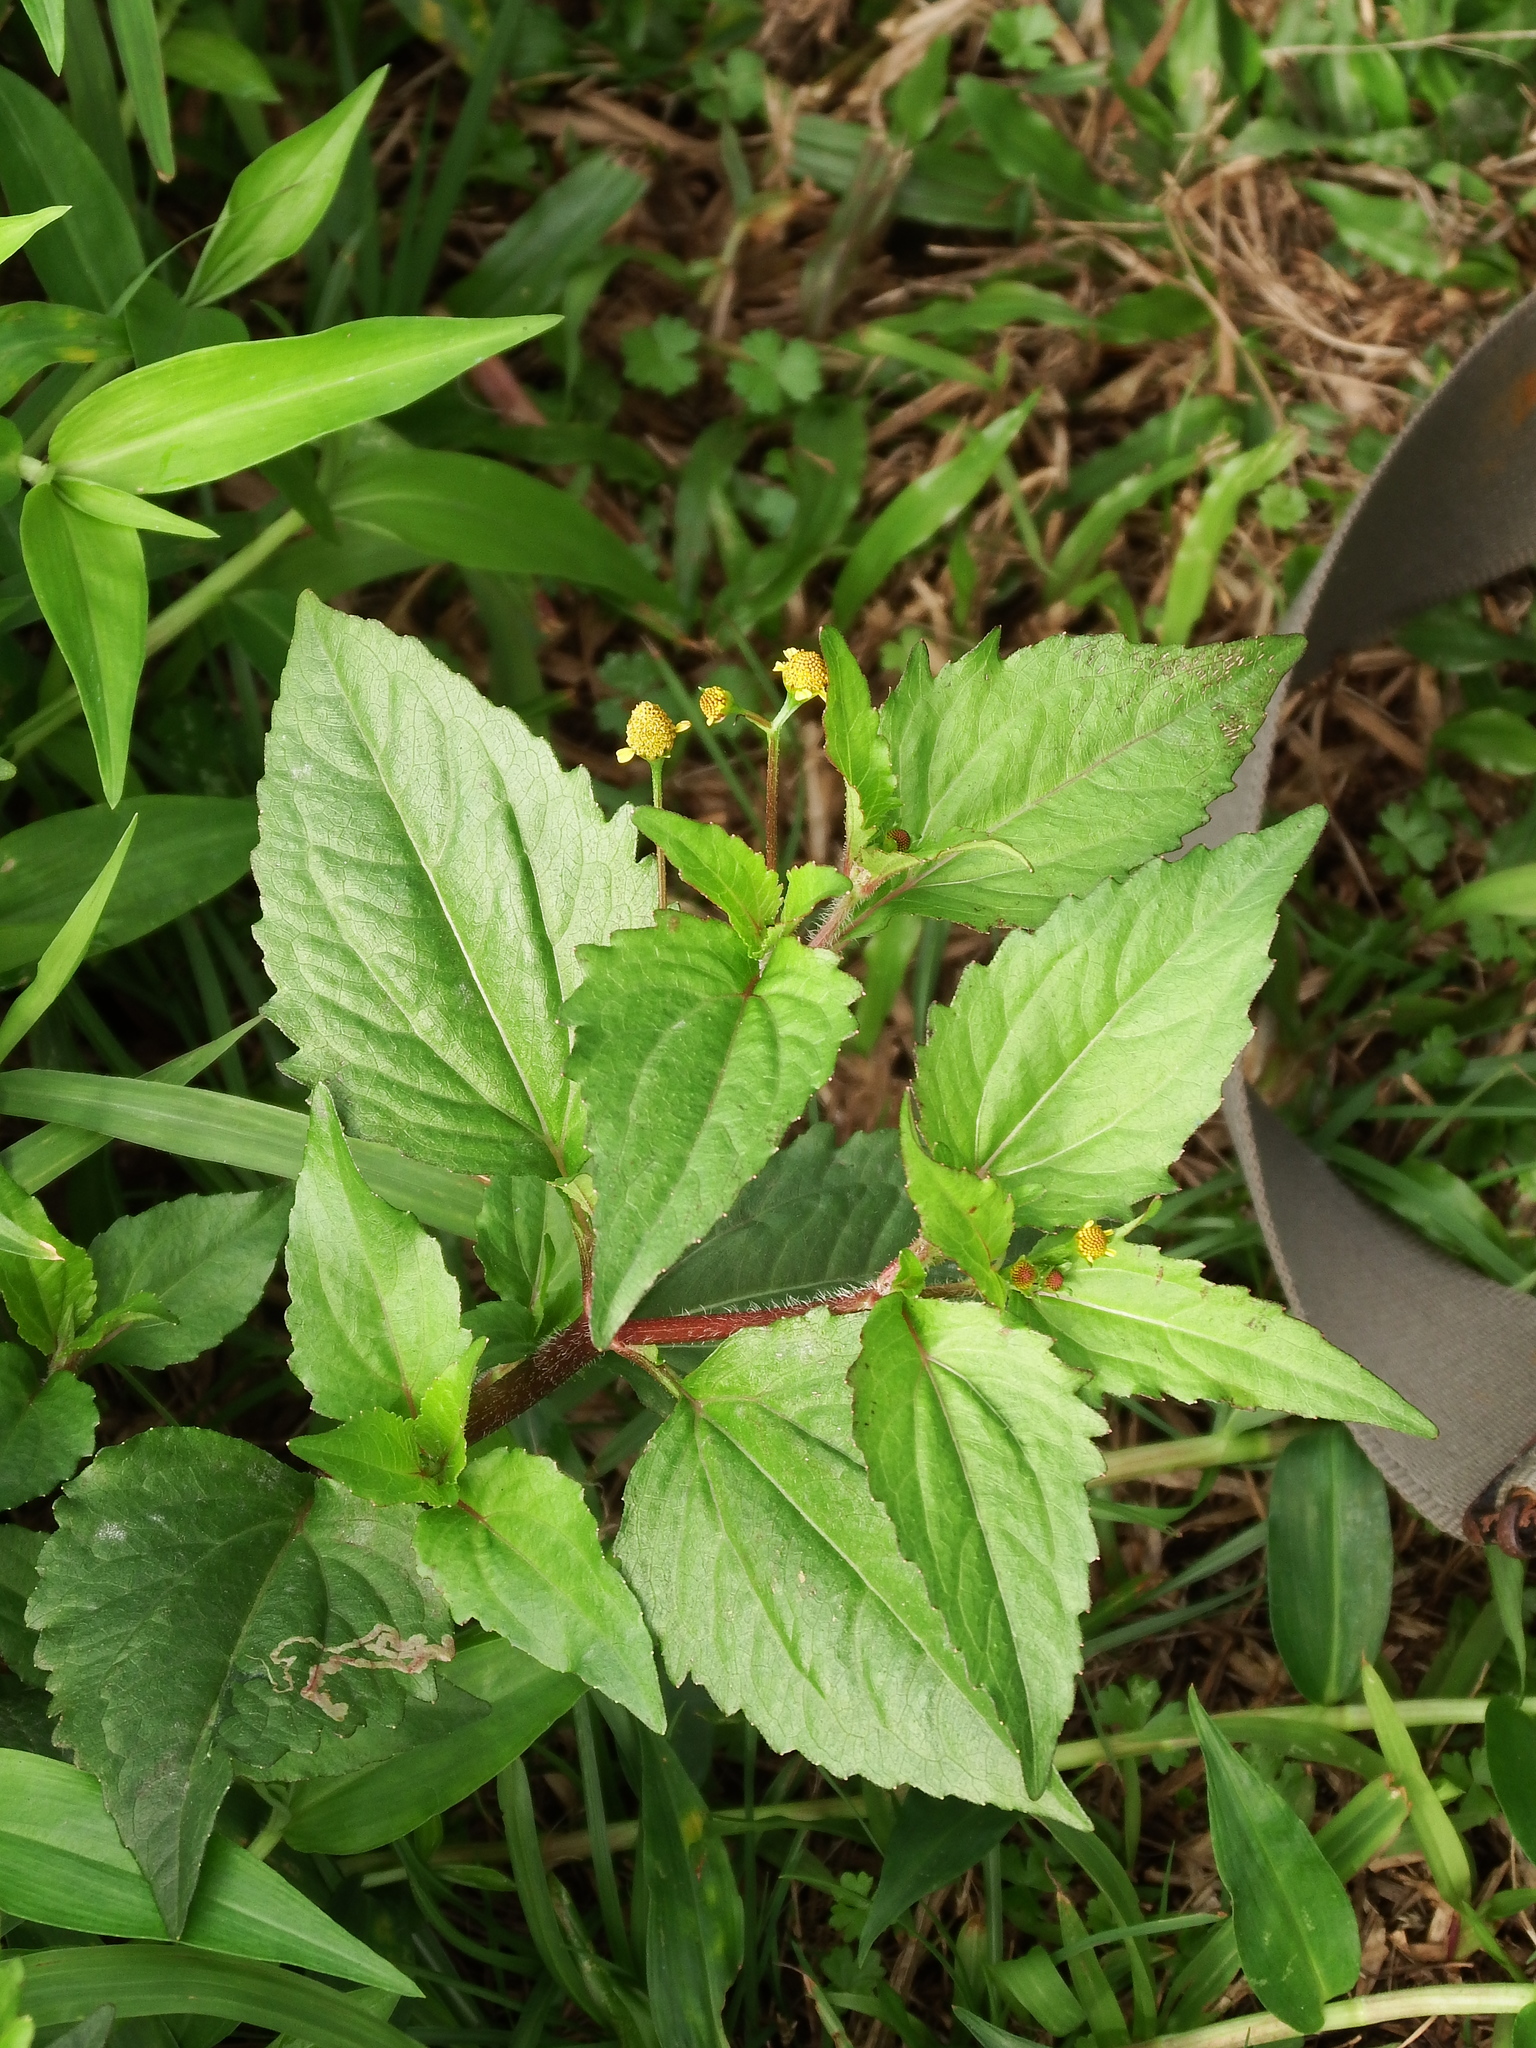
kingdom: Plantae
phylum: Tracheophyta
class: Magnoliopsida
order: Asterales
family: Asteraceae
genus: Acmella
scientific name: Acmella uliginosa
